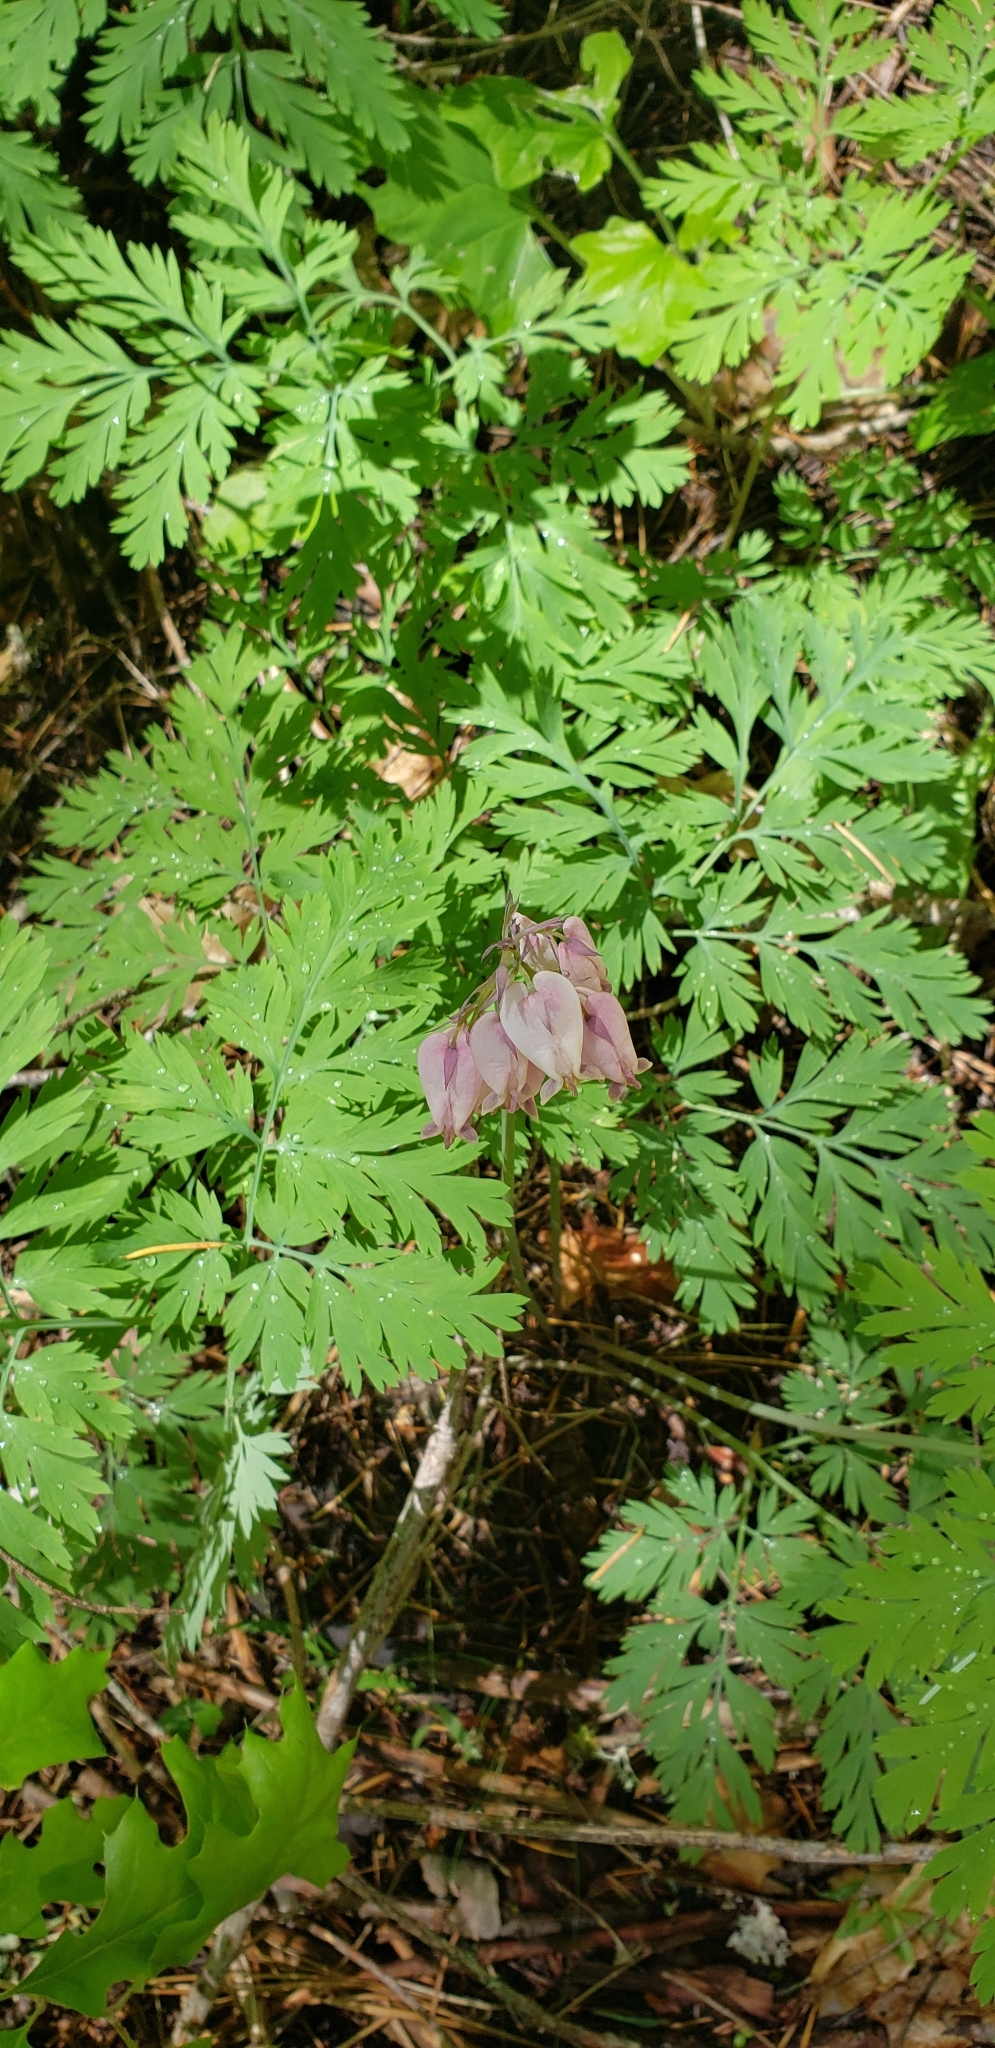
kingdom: Plantae
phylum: Tracheophyta
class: Magnoliopsida
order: Ranunculales
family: Papaveraceae
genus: Dicentra
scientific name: Dicentra formosa
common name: Bleeding-heart
